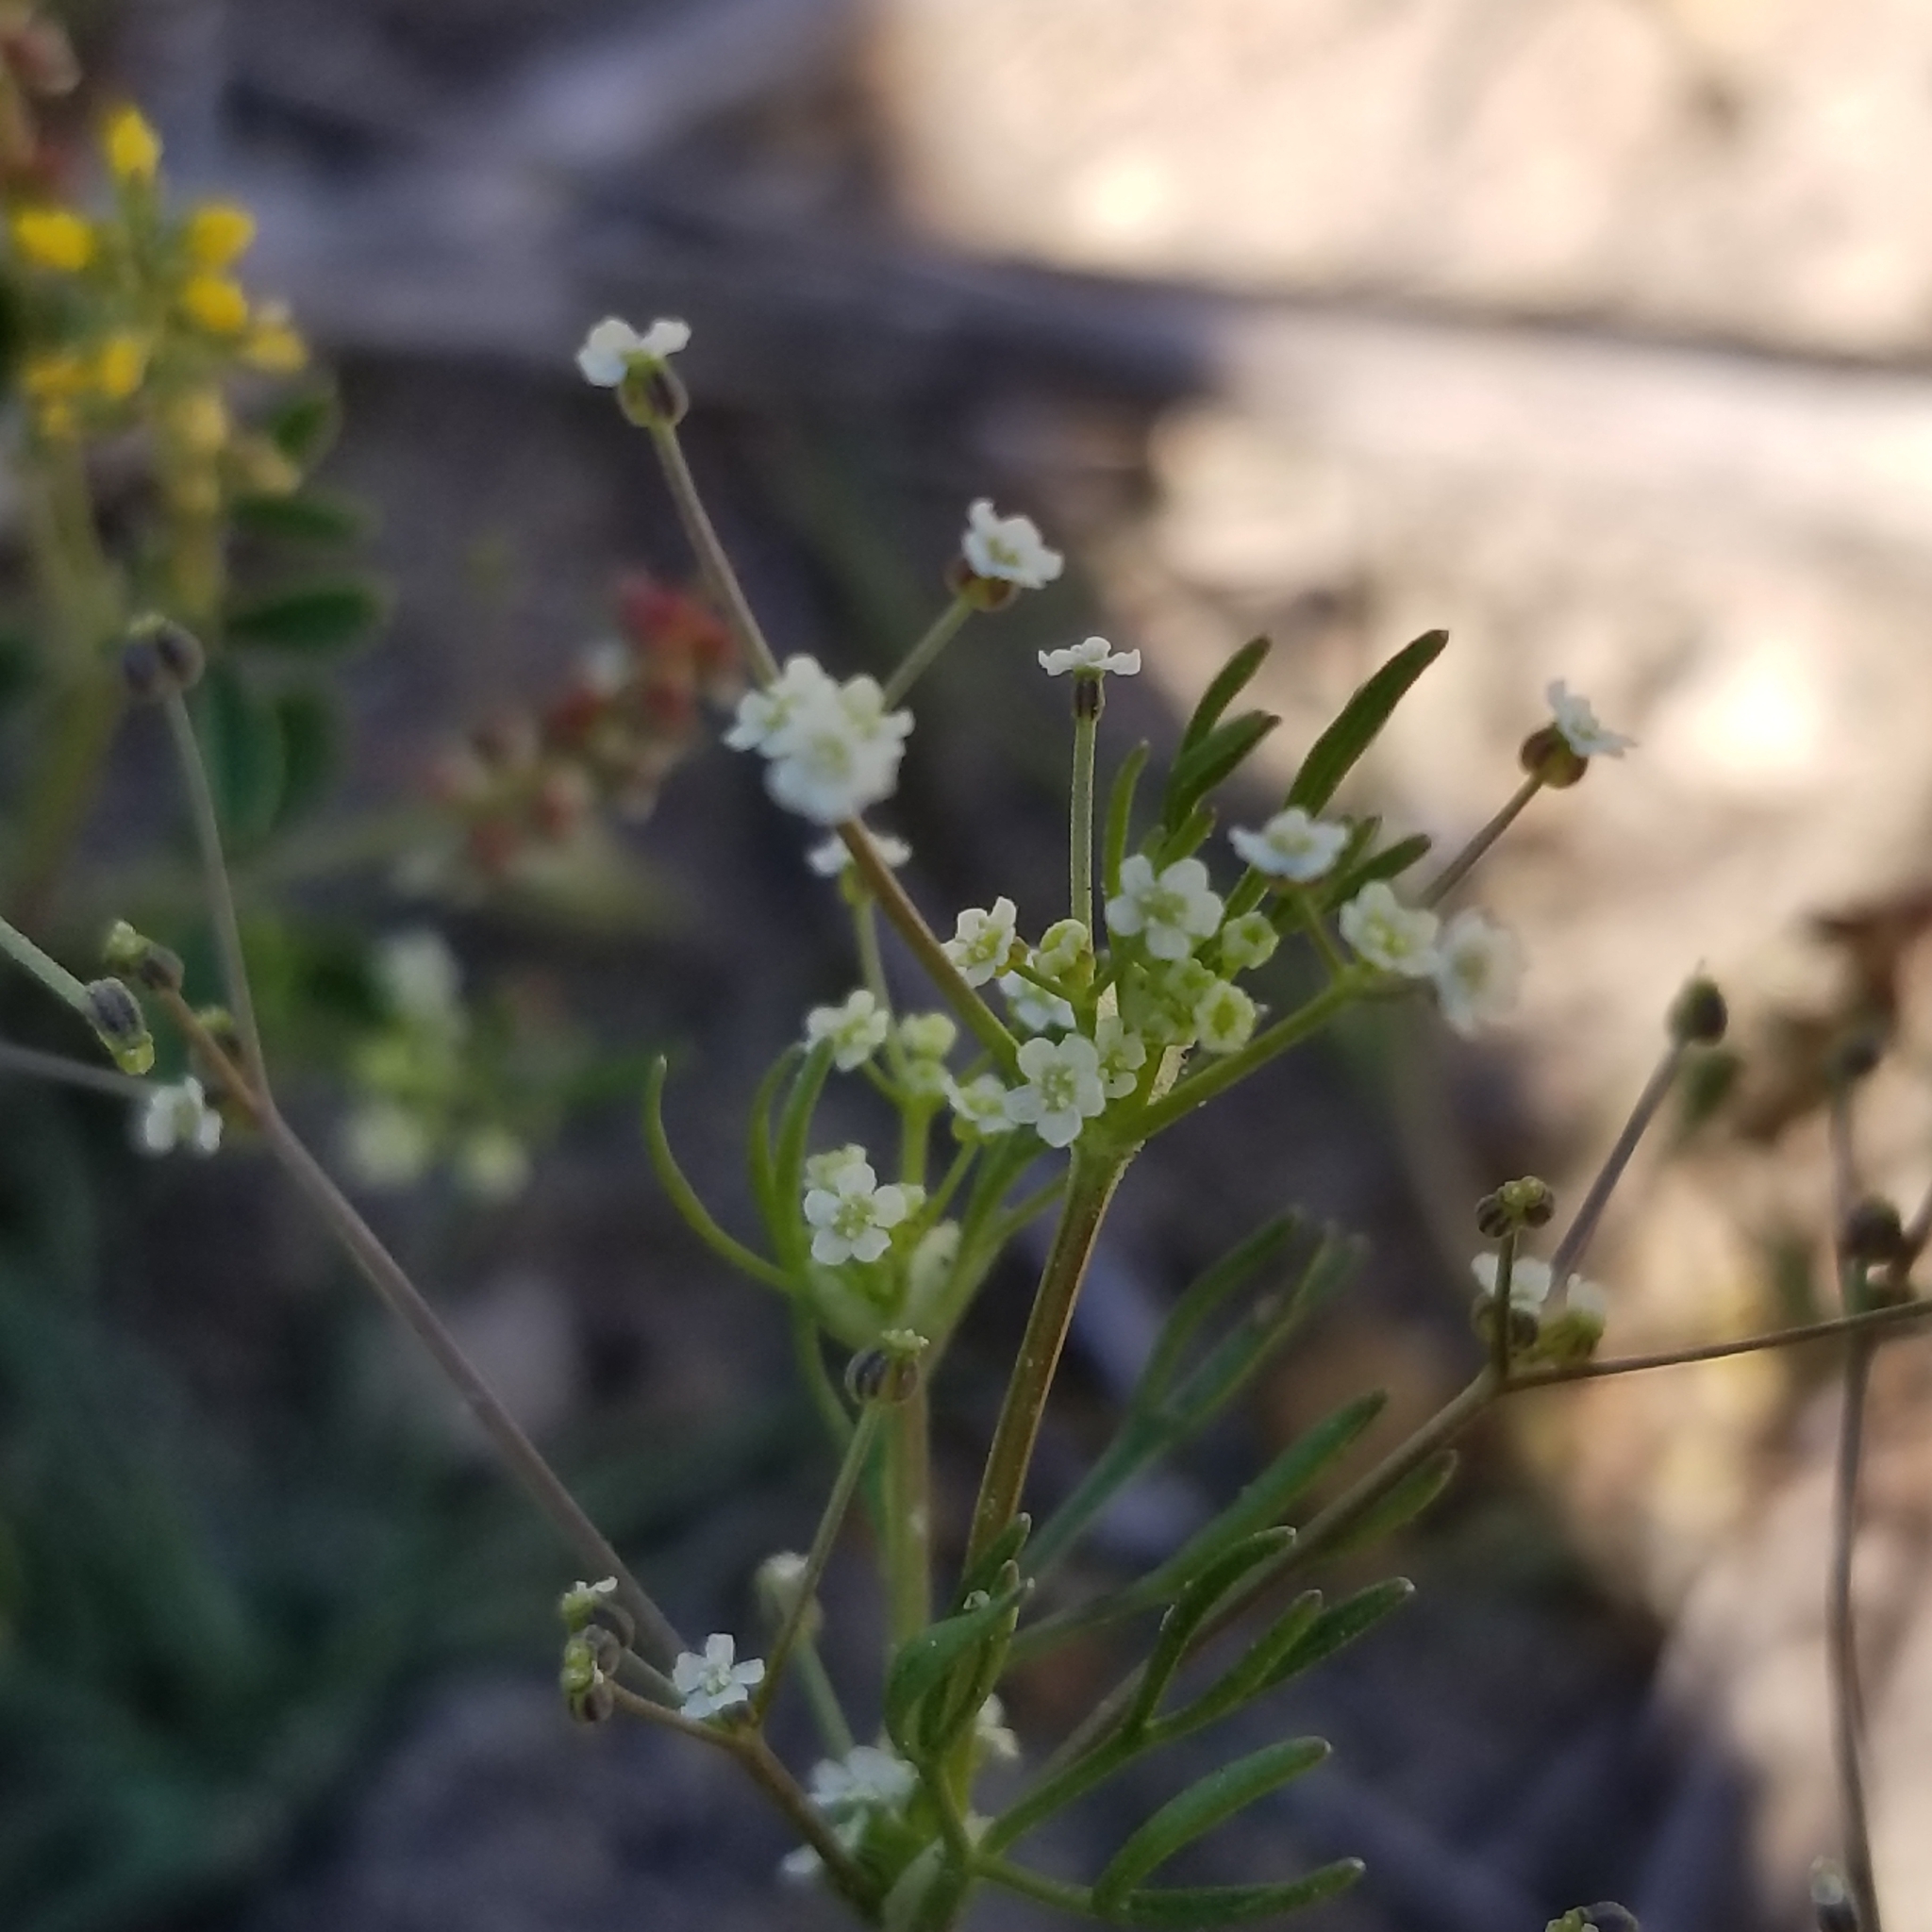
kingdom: Plantae
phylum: Tracheophyta
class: Magnoliopsida
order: Apiales
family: Apiaceae
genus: Apiastrum
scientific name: Apiastrum angustifolium
